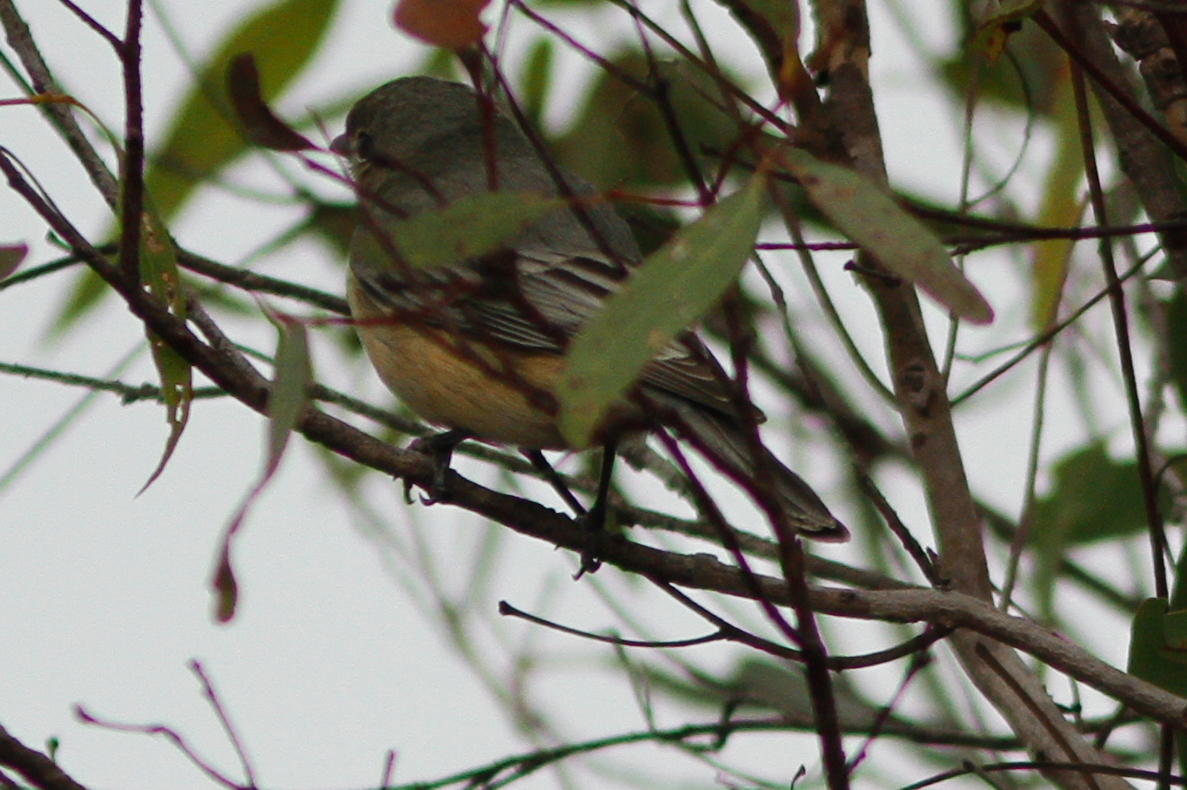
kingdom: Animalia
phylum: Chordata
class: Aves
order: Passeriformes
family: Pachycephalidae
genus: Pachycephala
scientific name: Pachycephala rufiventris
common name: Rufous whistler
